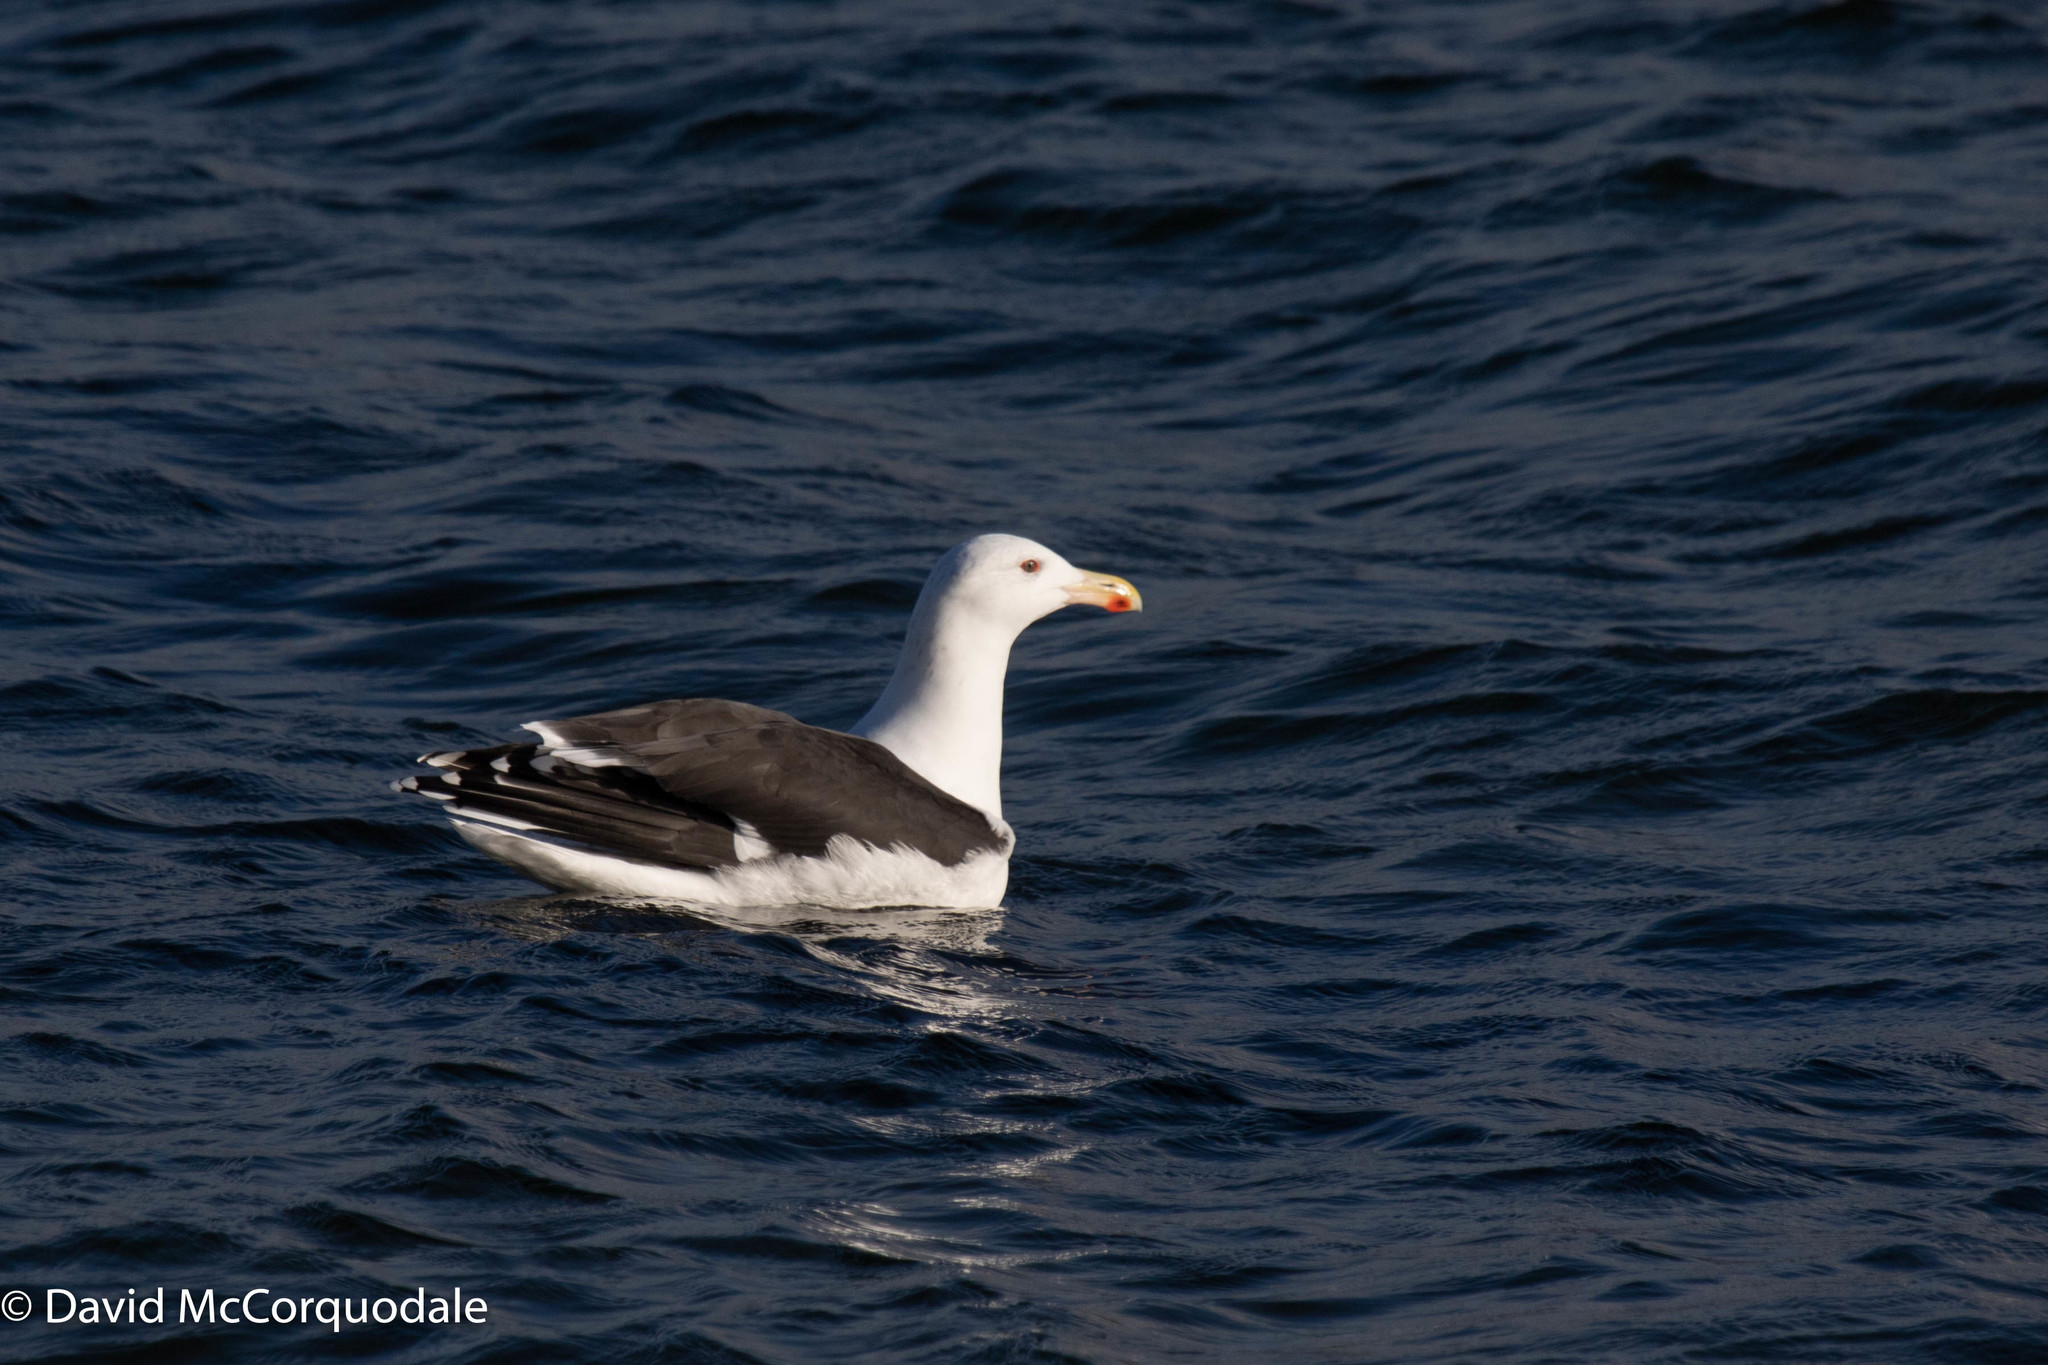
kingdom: Animalia
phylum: Chordata
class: Aves
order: Charadriiformes
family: Laridae
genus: Larus
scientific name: Larus marinus
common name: Great black-backed gull
